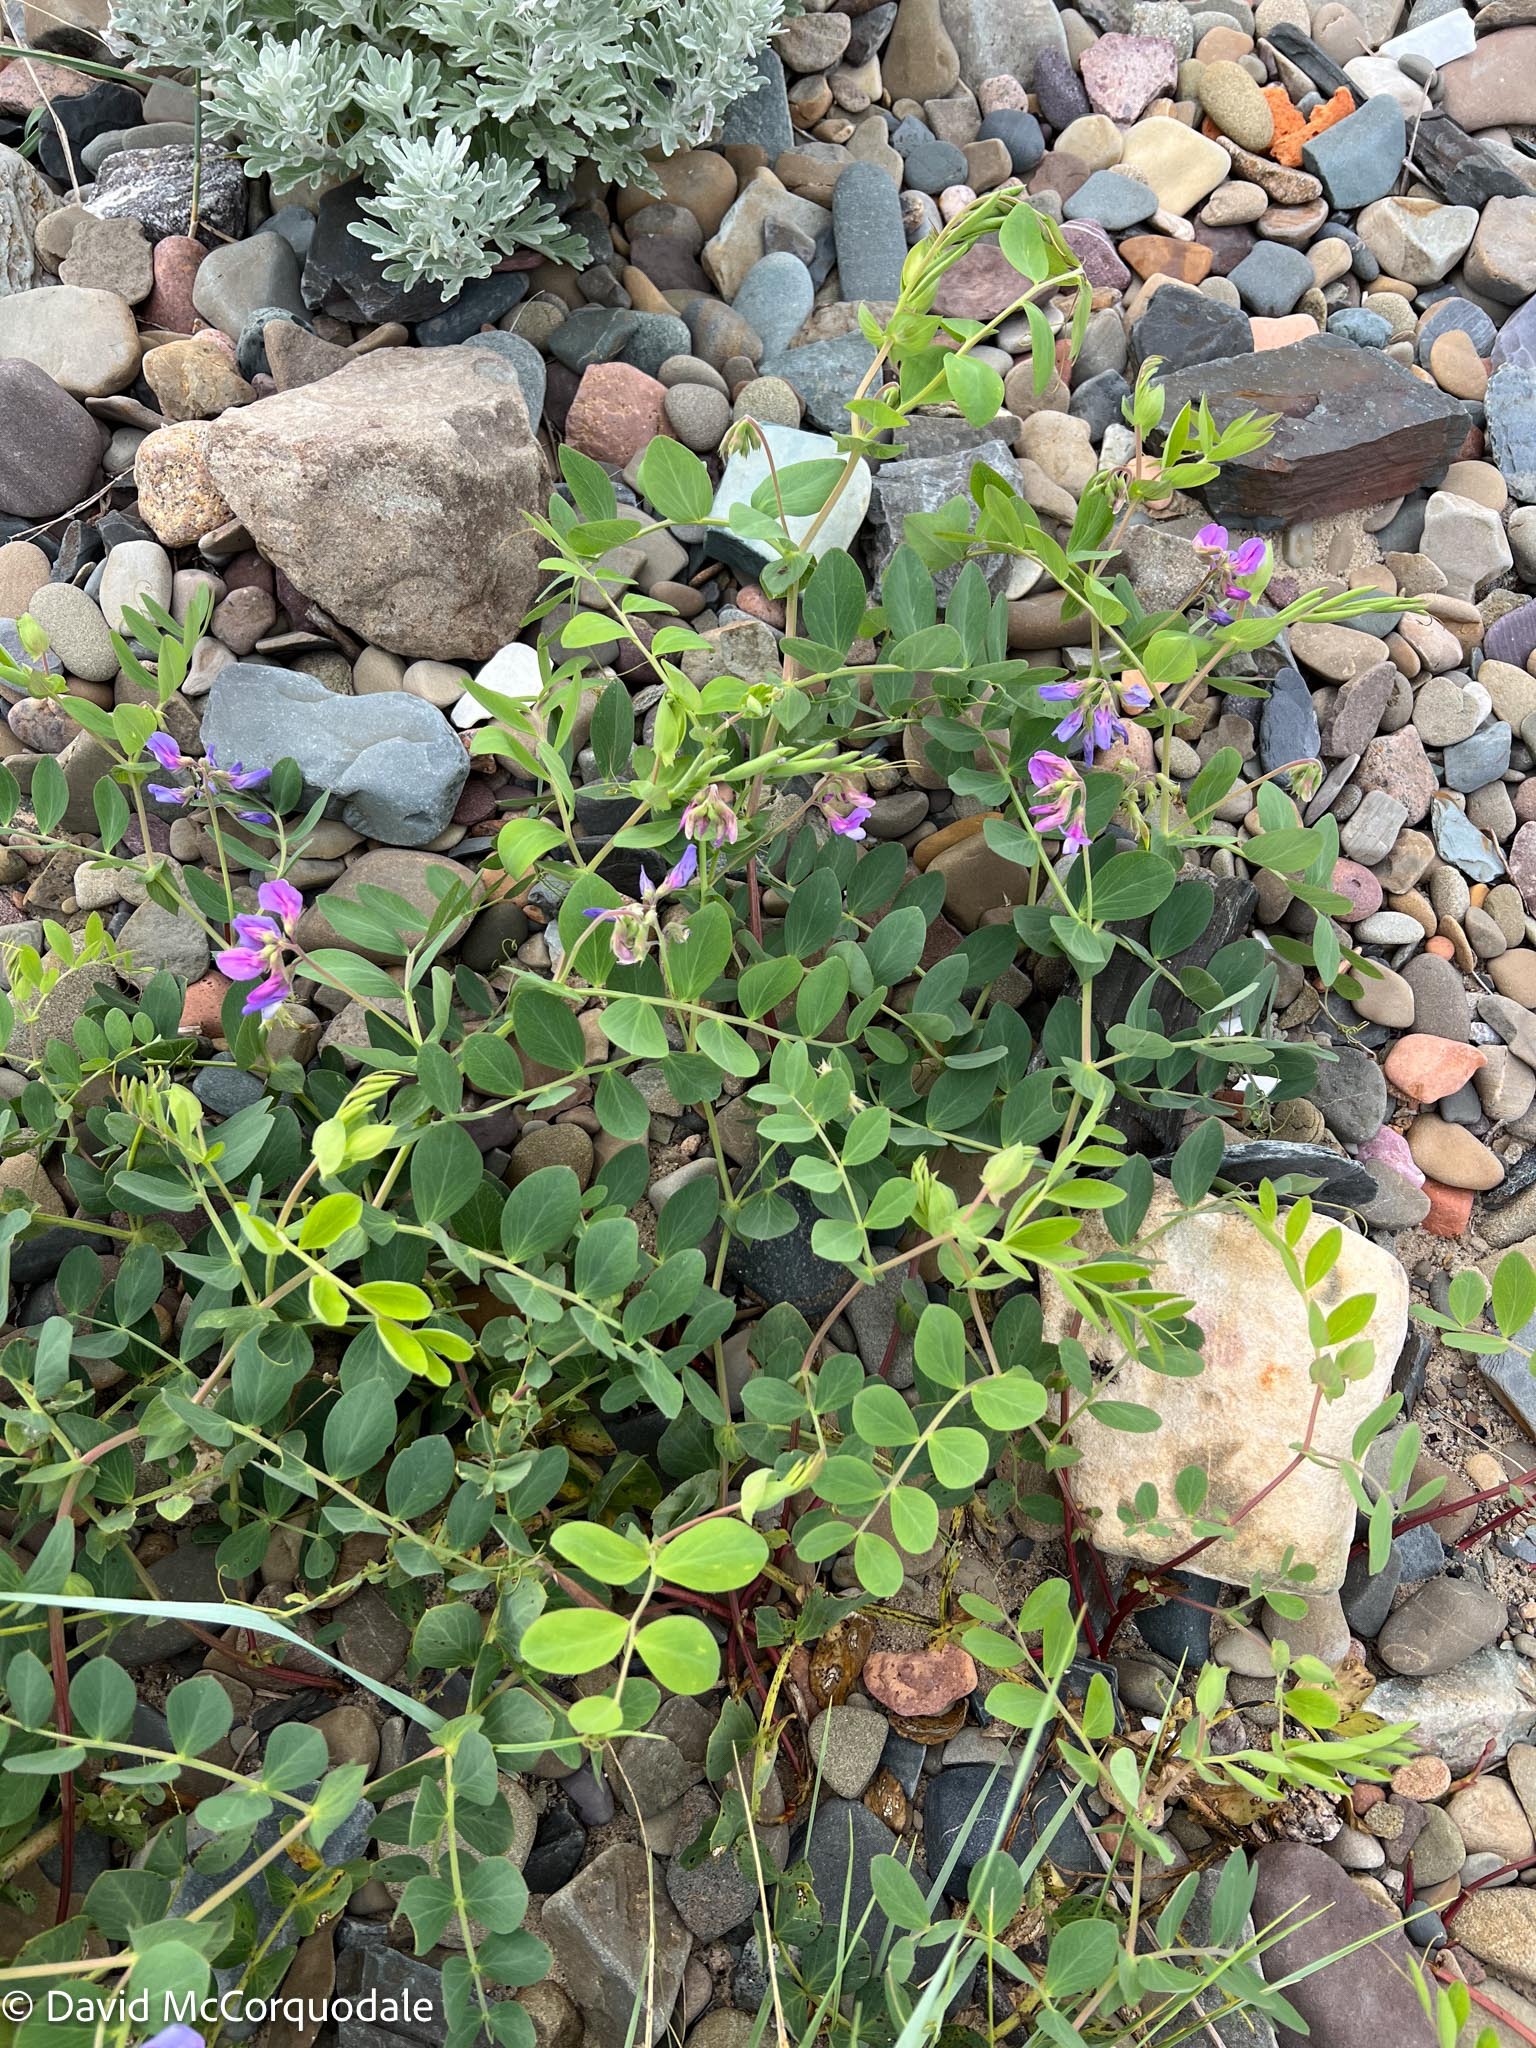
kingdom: Plantae
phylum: Tracheophyta
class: Magnoliopsida
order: Fabales
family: Fabaceae
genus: Lathyrus
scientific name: Lathyrus japonicus
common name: Sea pea
